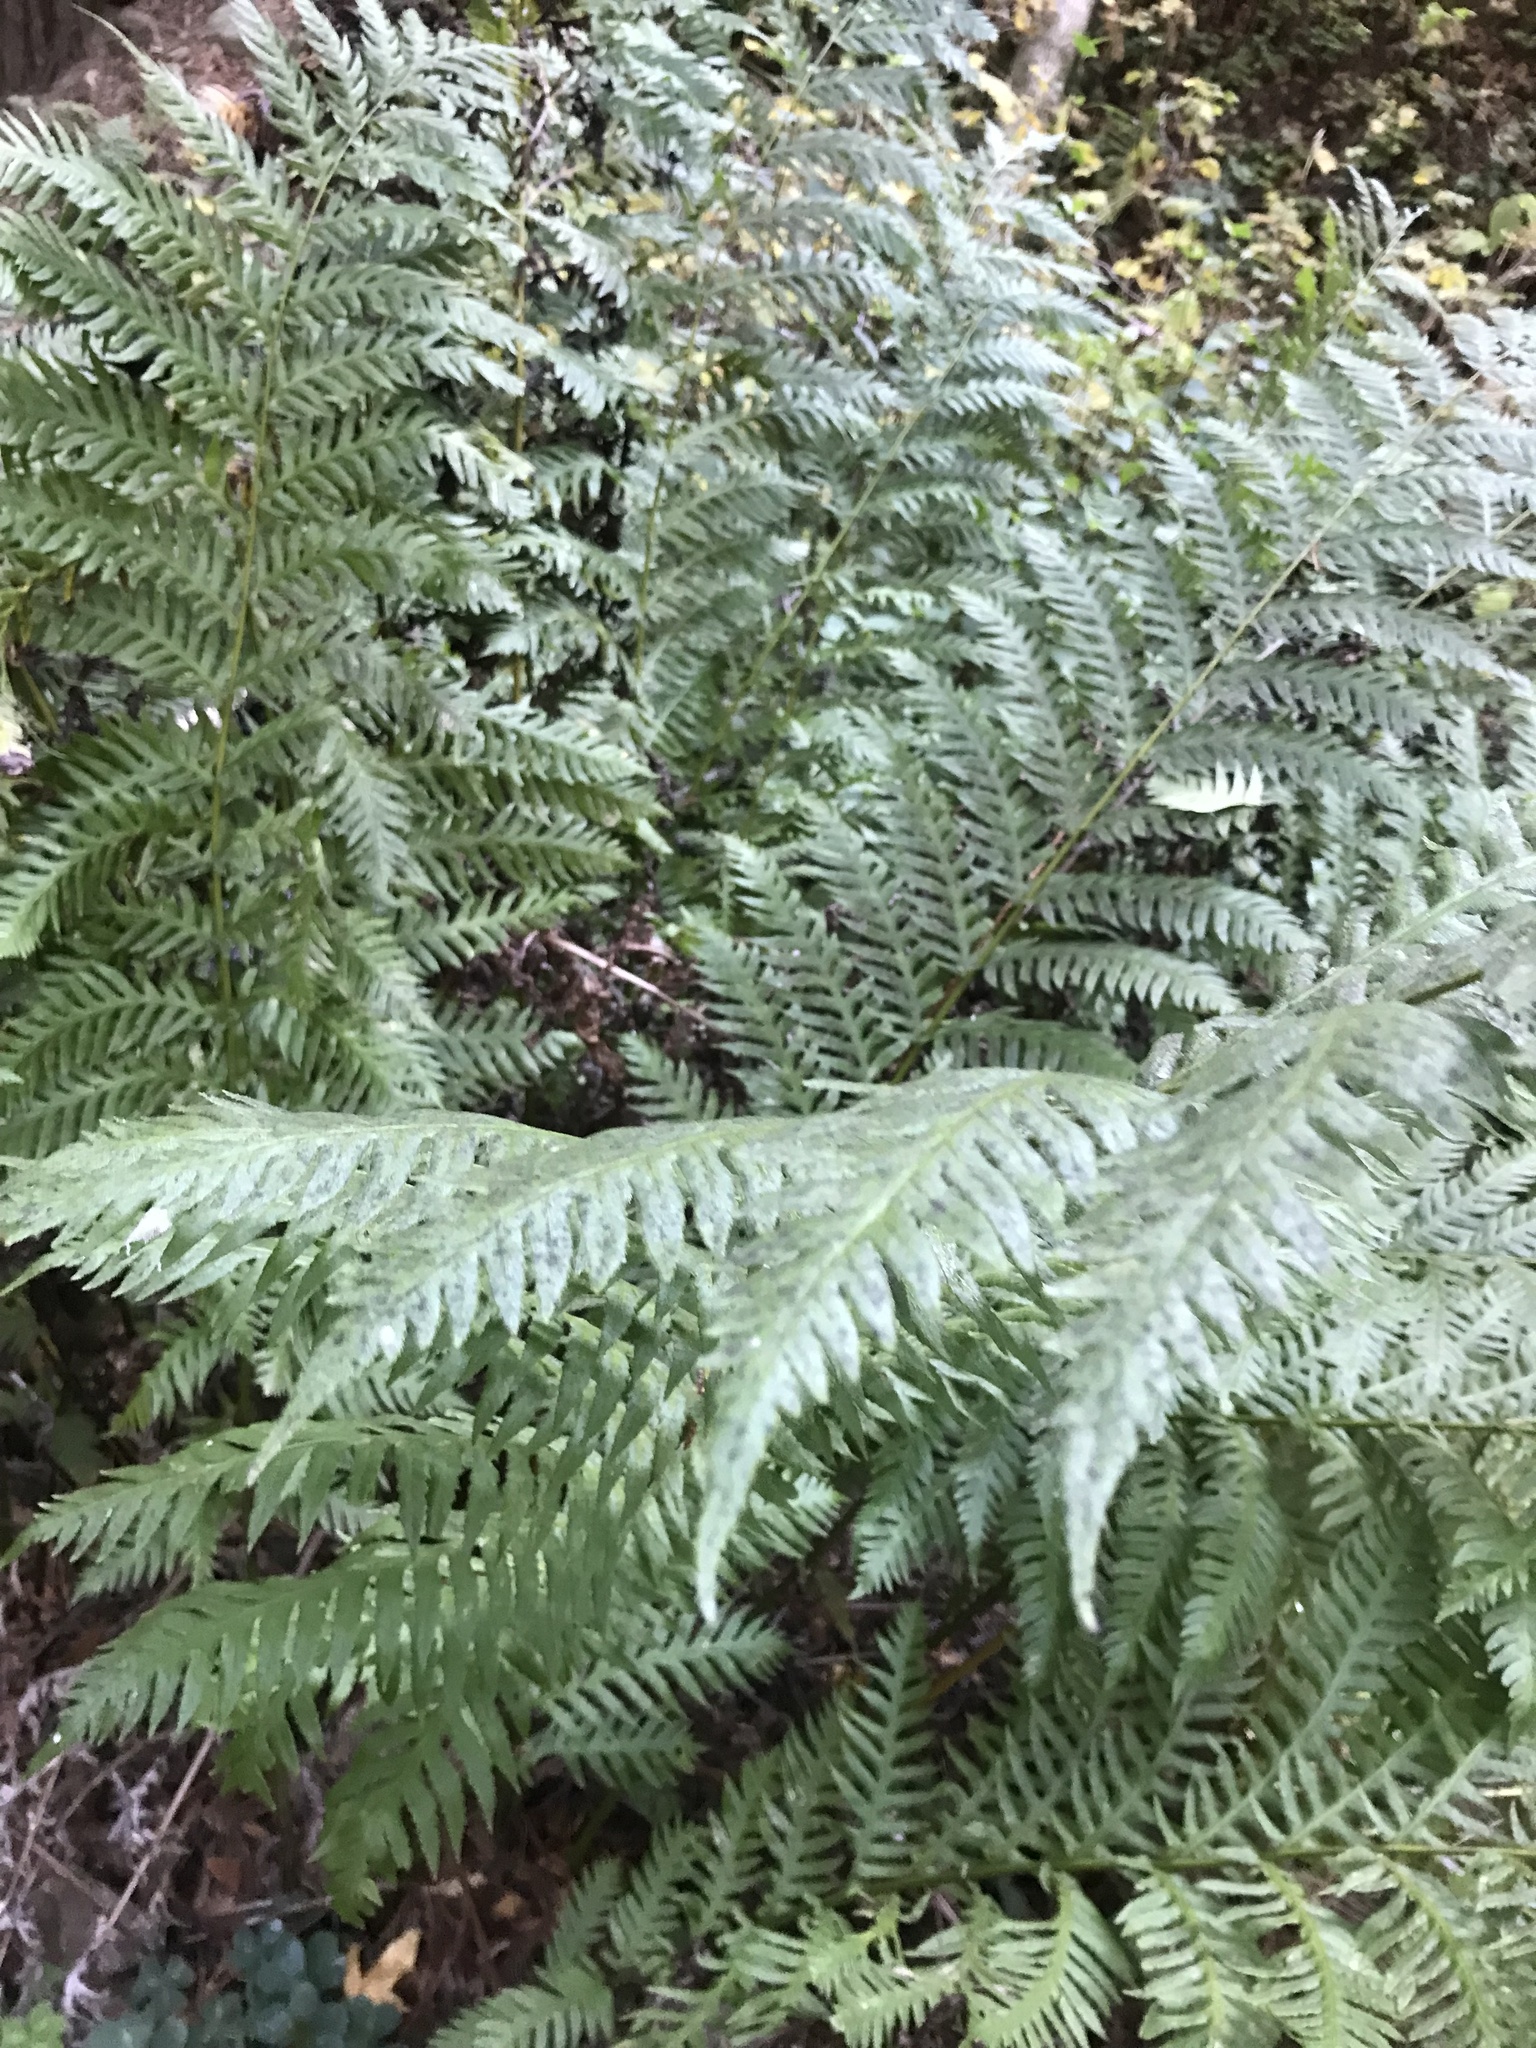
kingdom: Plantae
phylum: Tracheophyta
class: Polypodiopsida
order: Polypodiales
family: Blechnaceae
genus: Woodwardia
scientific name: Woodwardia fimbriata
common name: Giant chain fern
